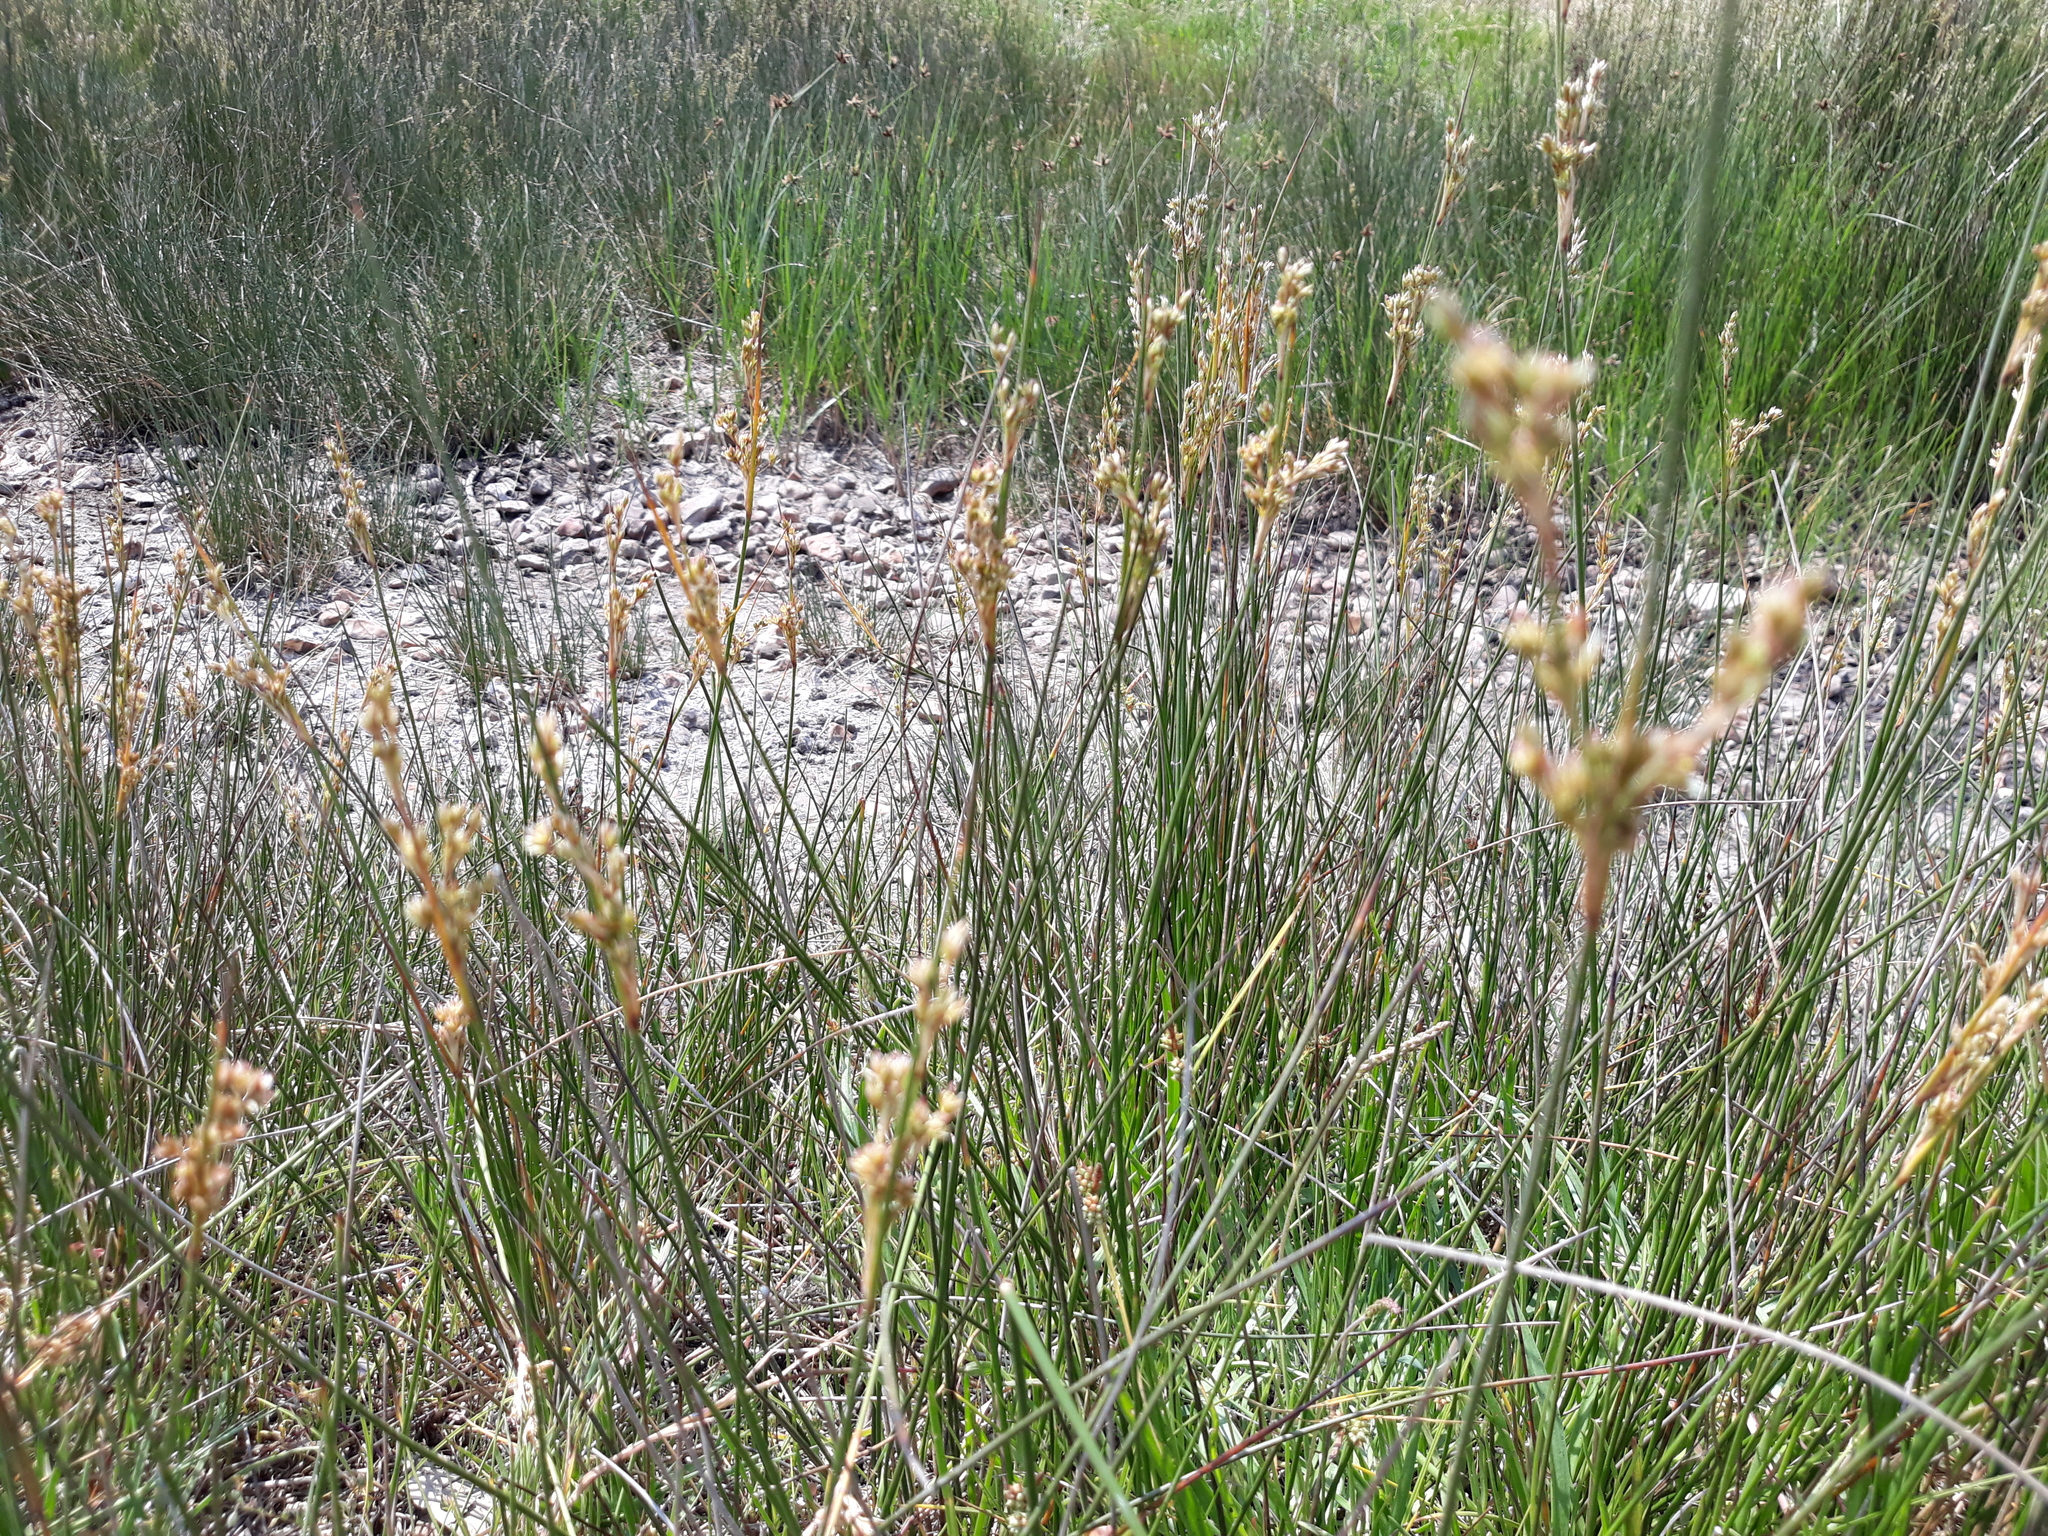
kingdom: Plantae
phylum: Tracheophyta
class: Liliopsida
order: Poales
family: Juncaceae
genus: Juncus
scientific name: Juncus maritimus
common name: Sea rush
